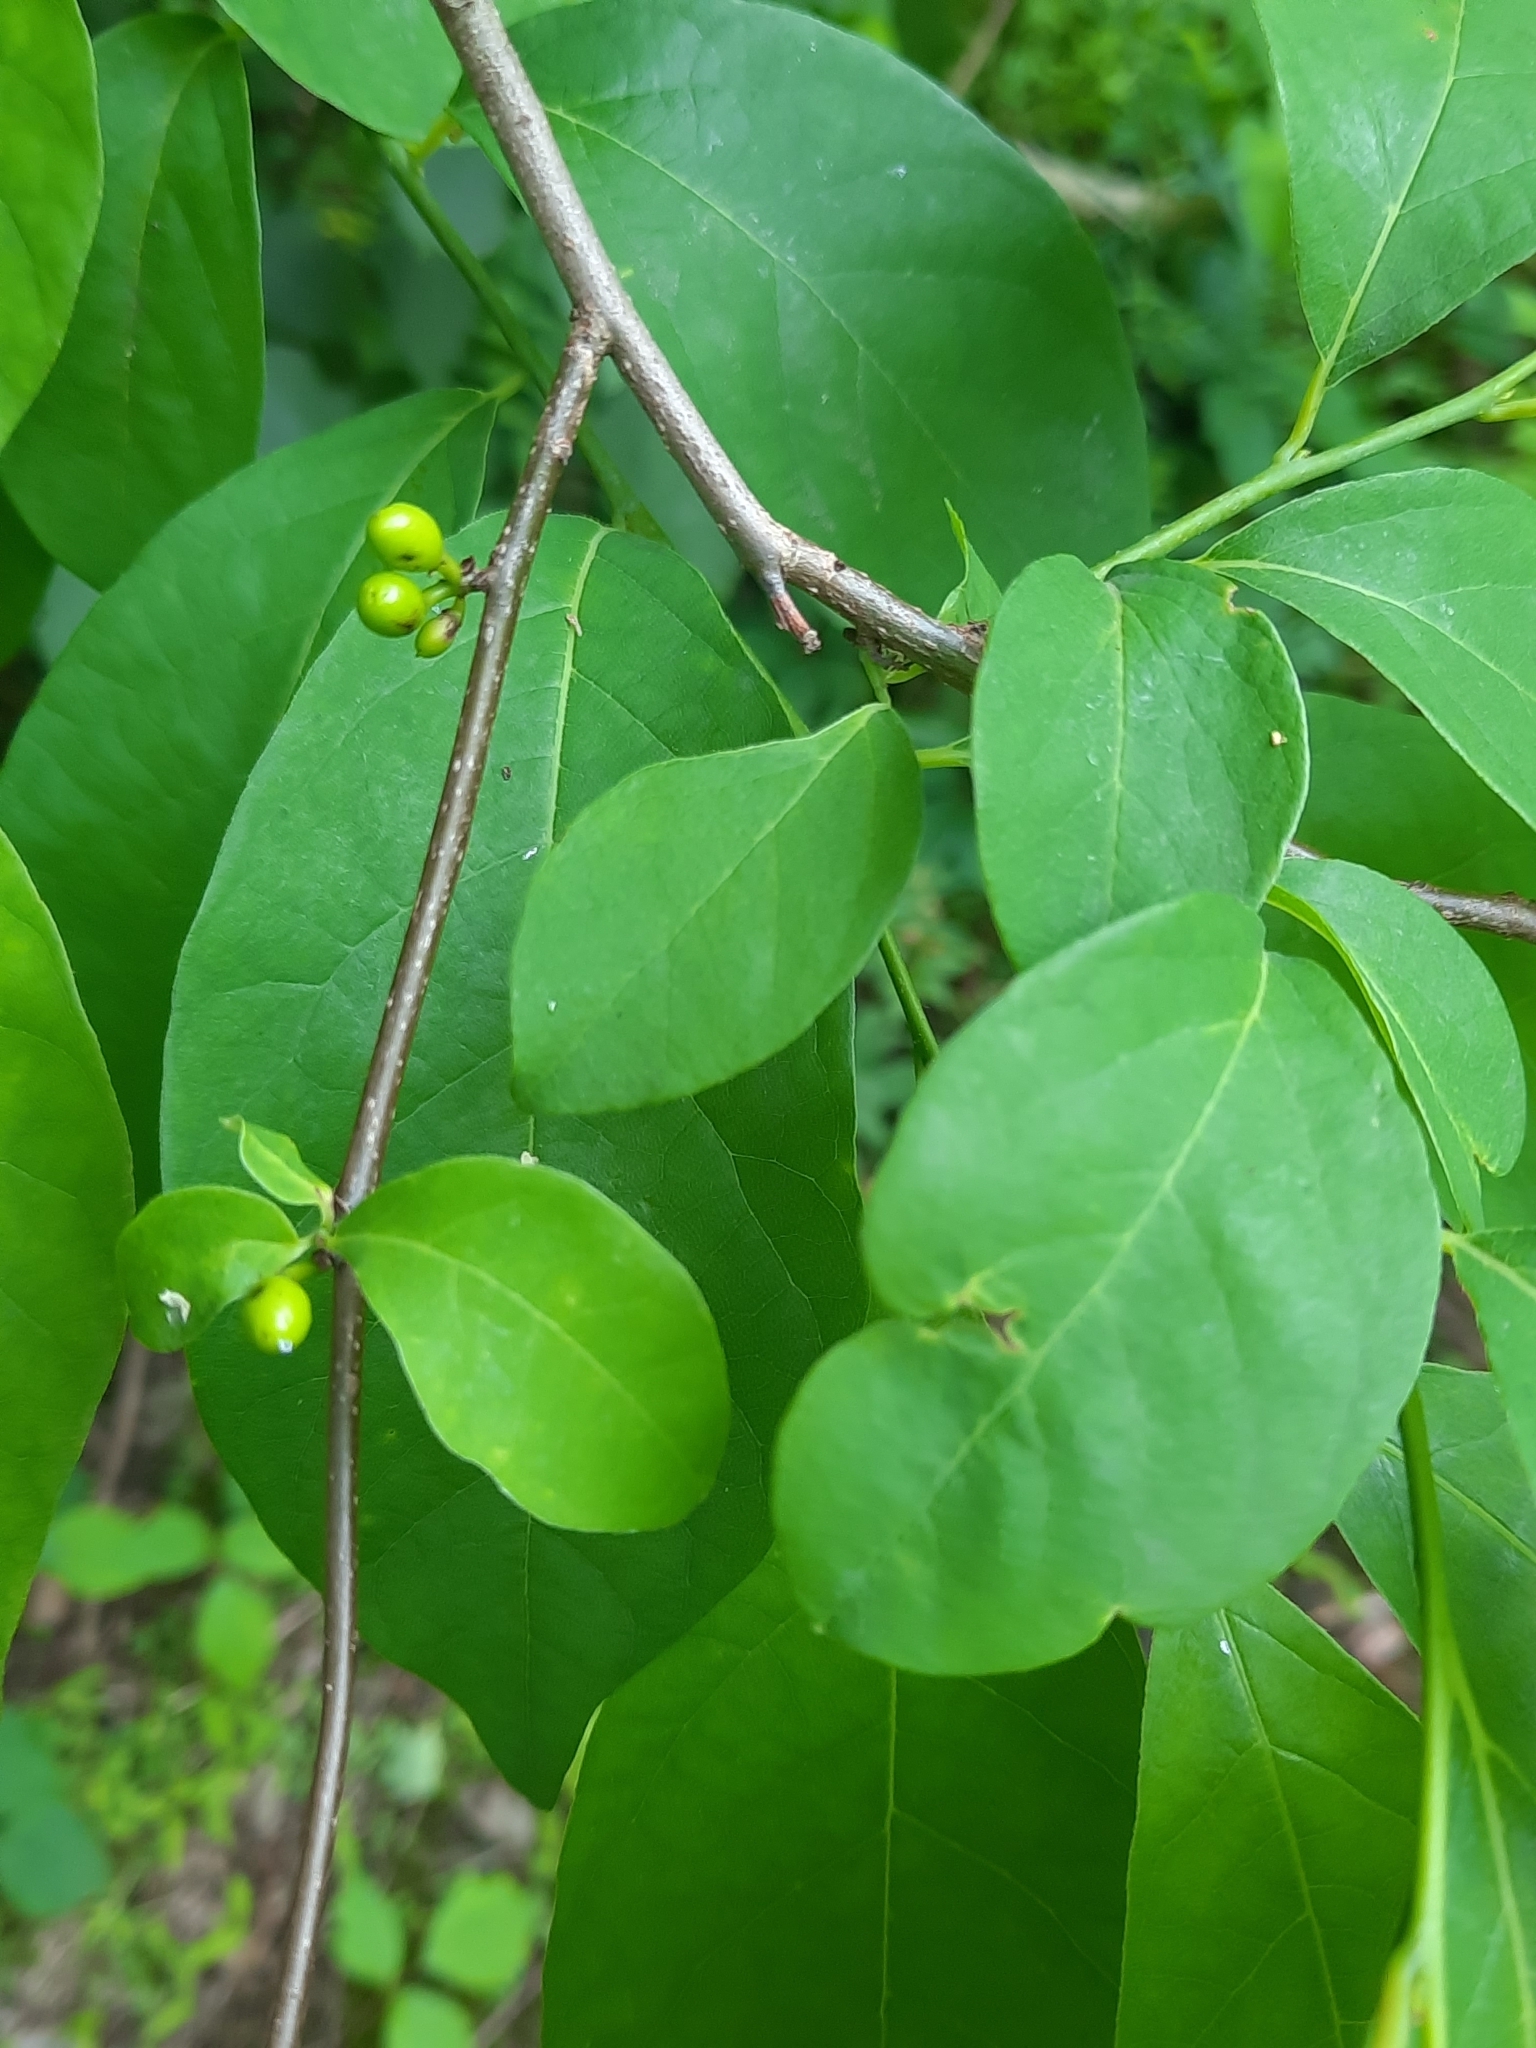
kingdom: Plantae
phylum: Tracheophyta
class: Magnoliopsida
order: Laurales
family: Lauraceae
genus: Lindera
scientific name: Lindera benzoin
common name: Spicebush
